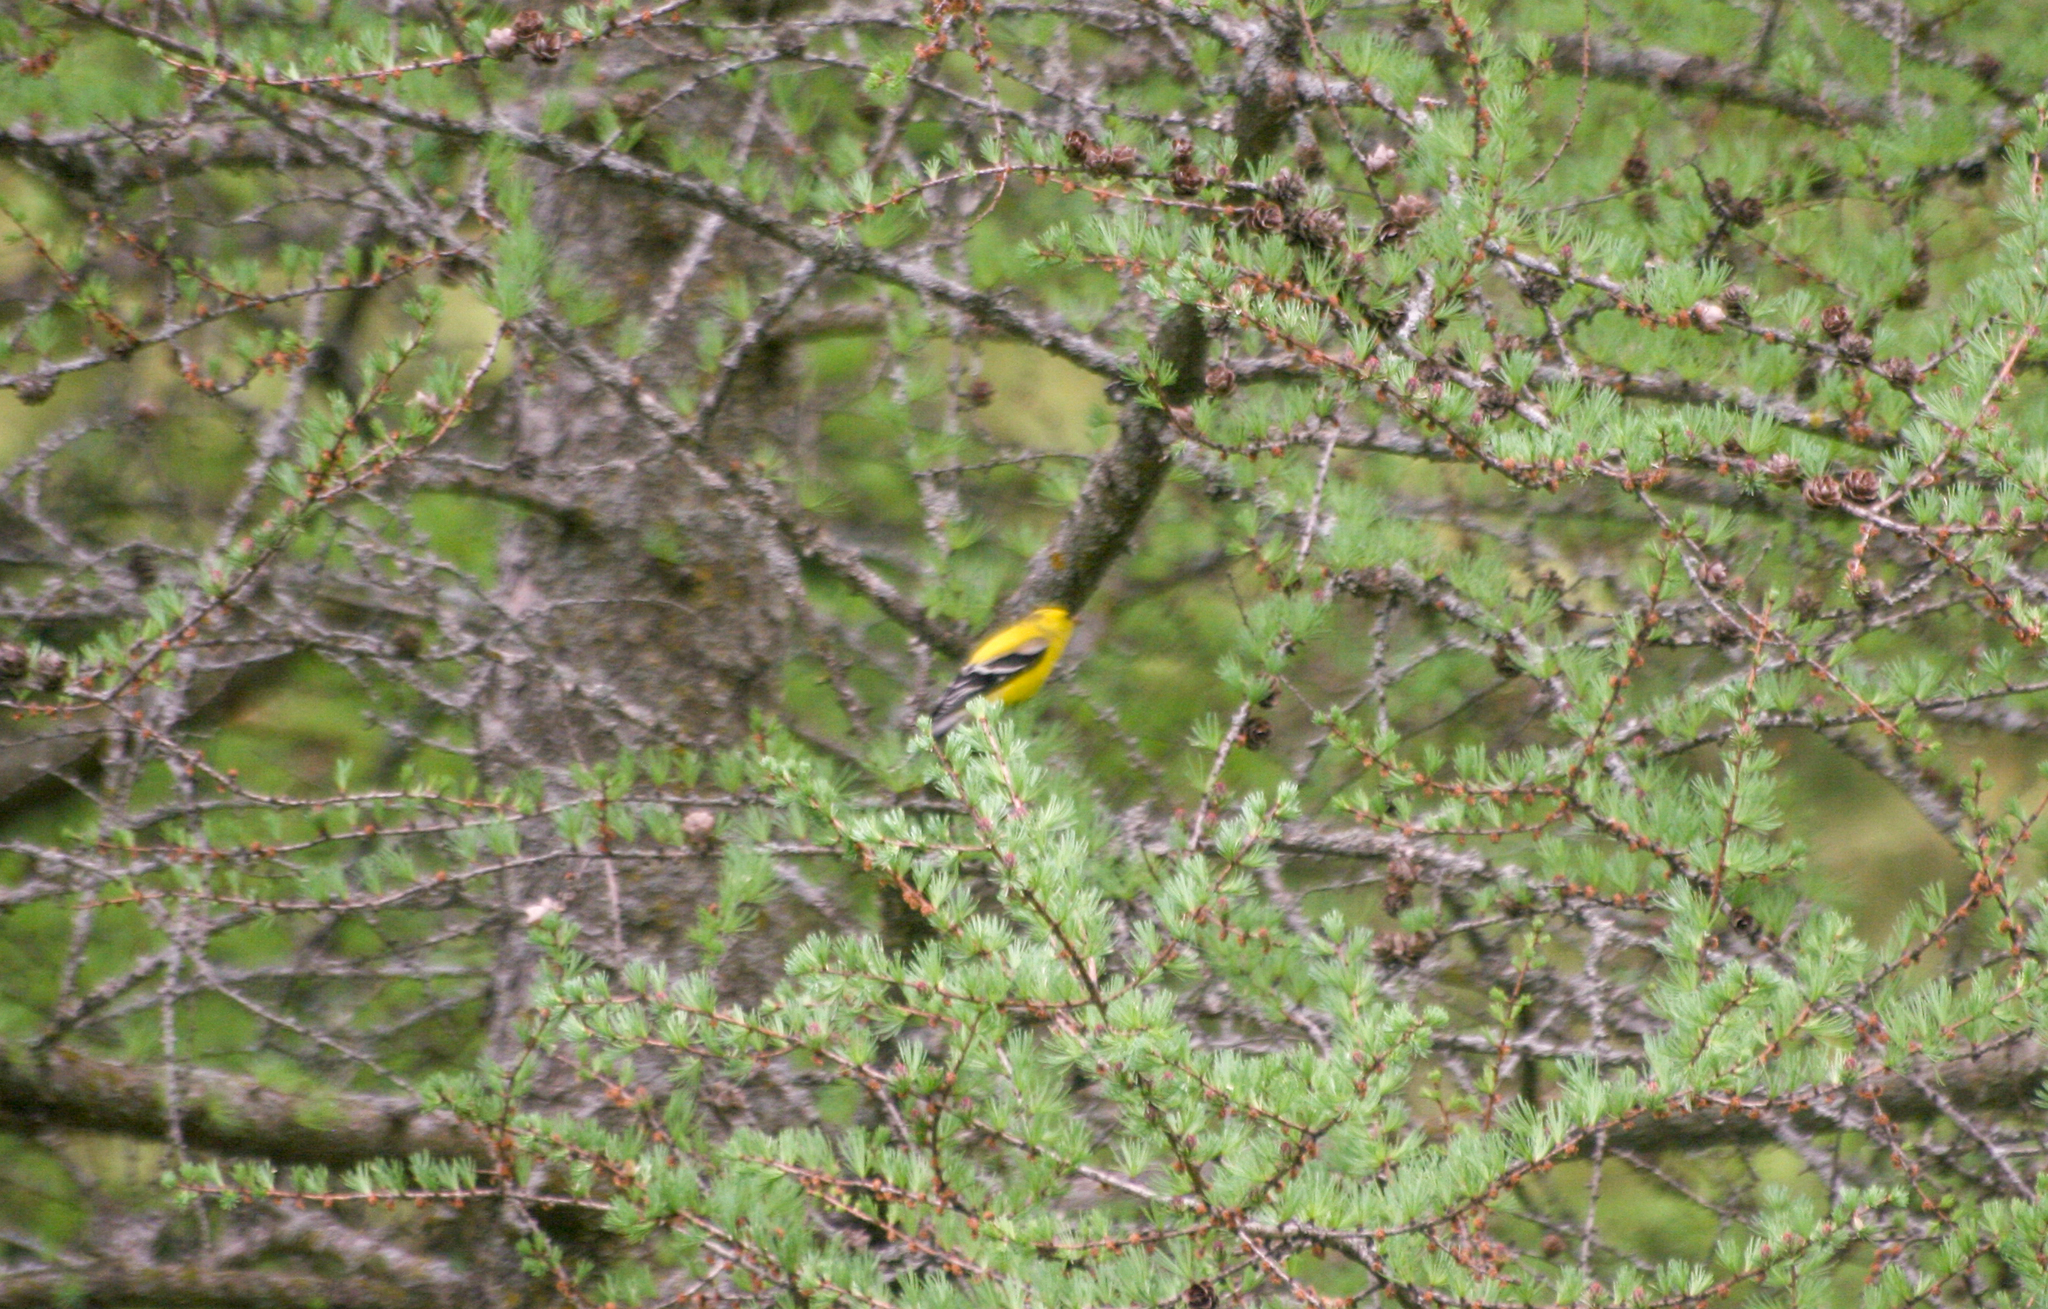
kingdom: Animalia
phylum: Chordata
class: Aves
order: Passeriformes
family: Fringillidae
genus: Spinus
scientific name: Spinus tristis
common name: American goldfinch
